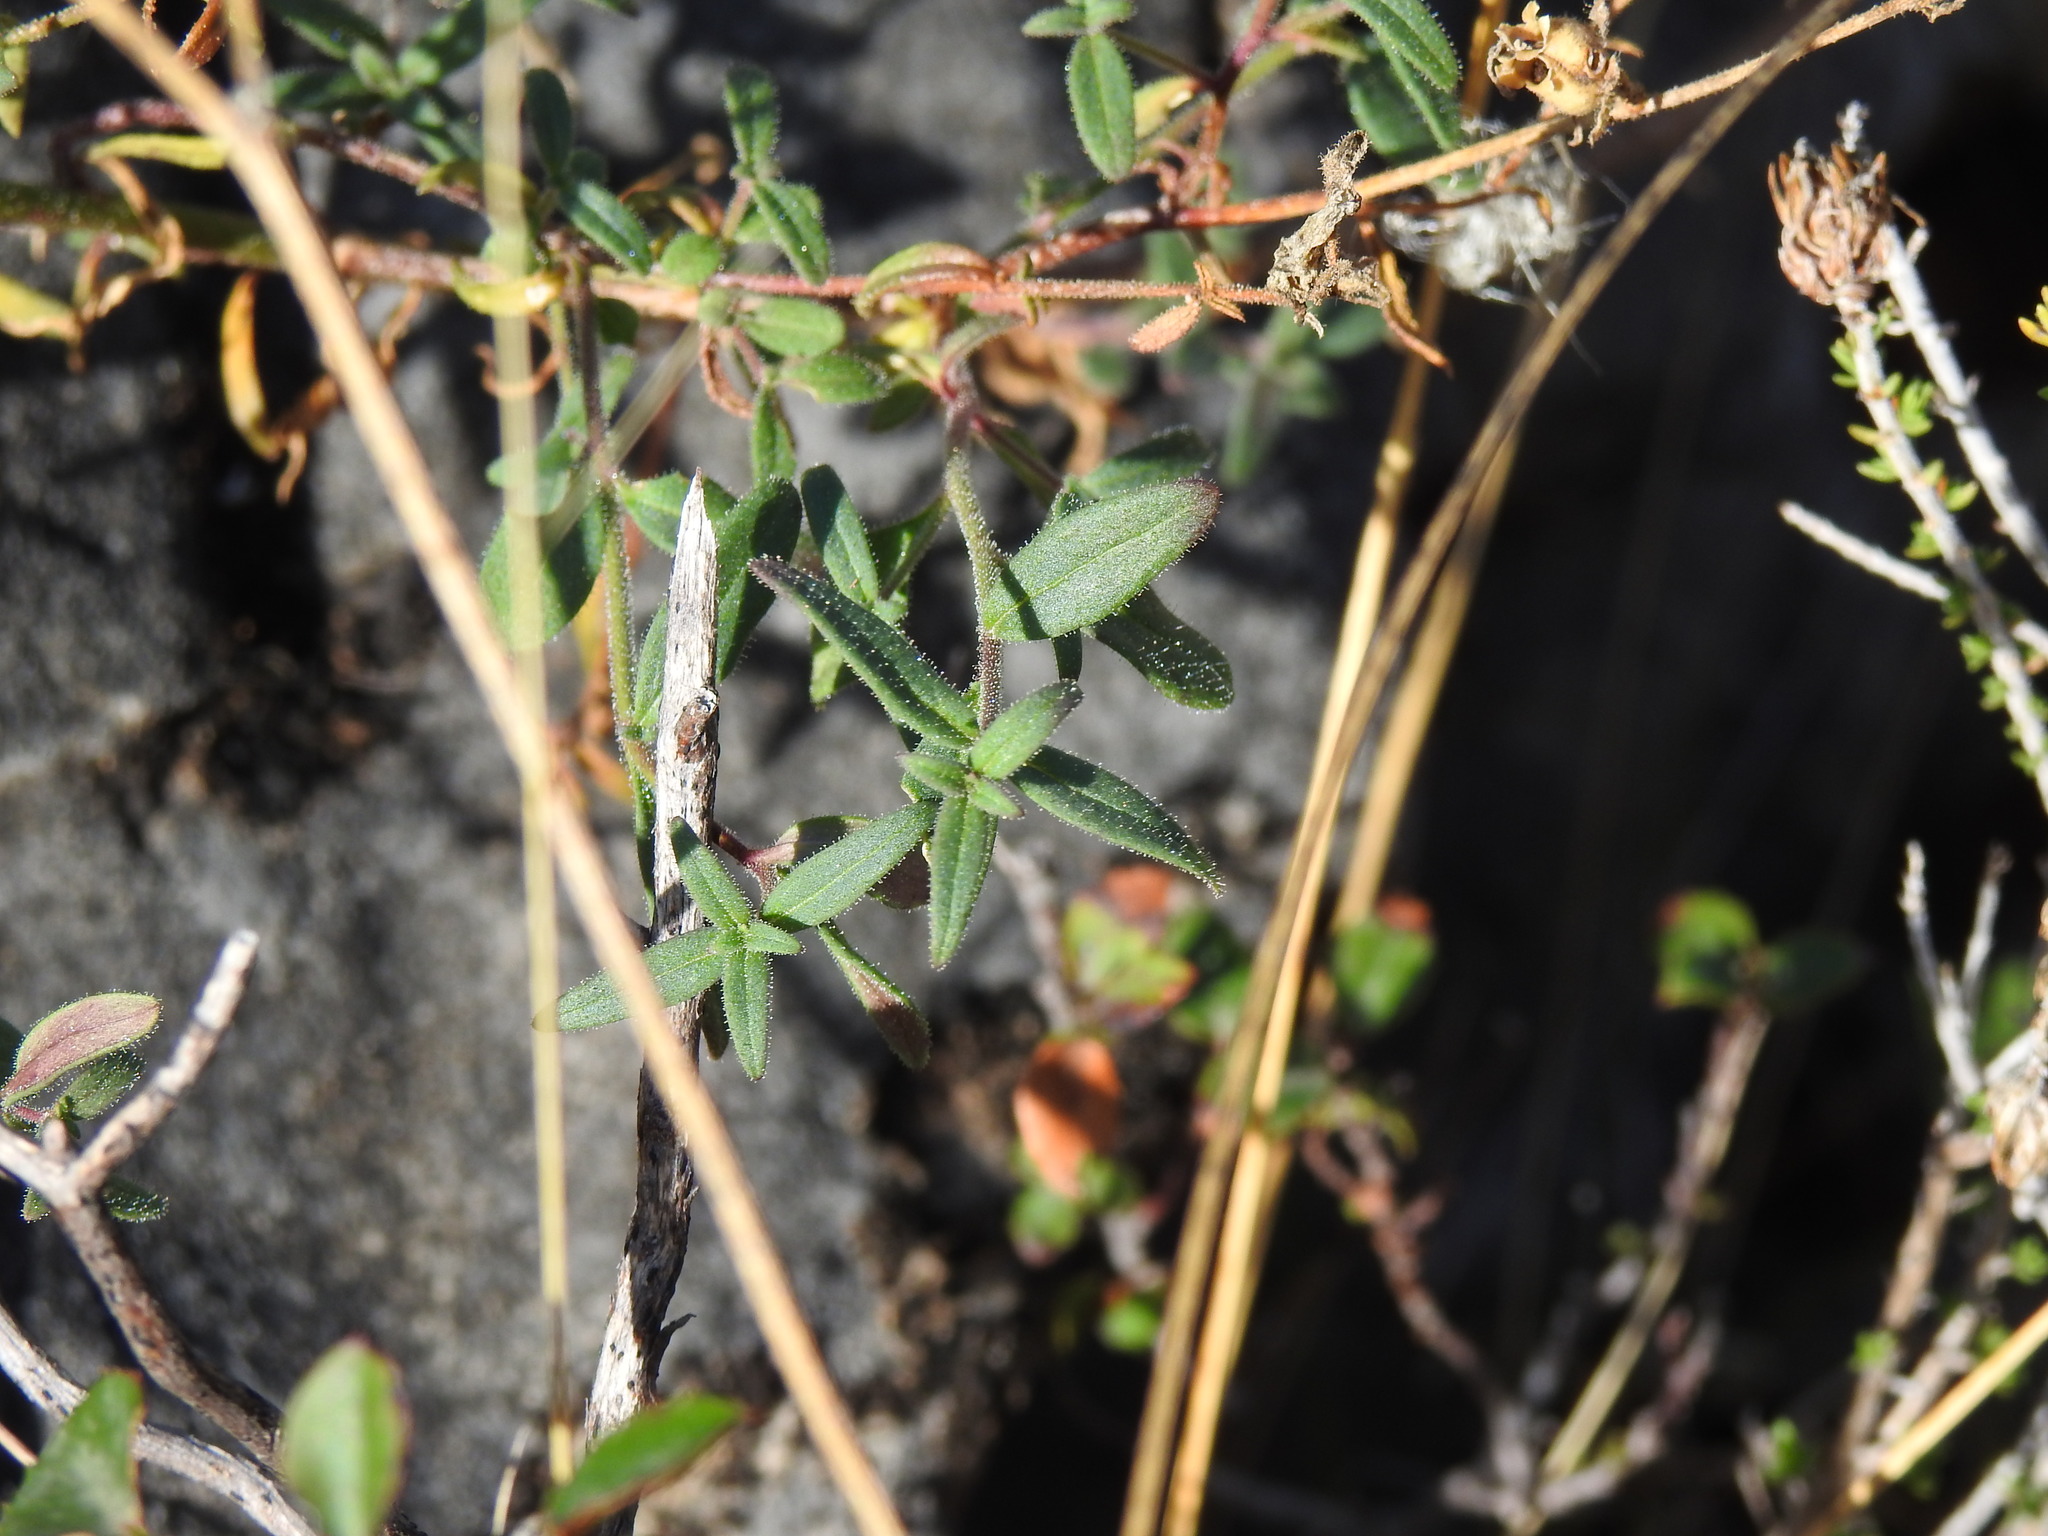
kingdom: Plantae
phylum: Tracheophyta
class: Magnoliopsida
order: Lamiales
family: Plantaginaceae
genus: Antirrhinum
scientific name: Antirrhinum onubense
